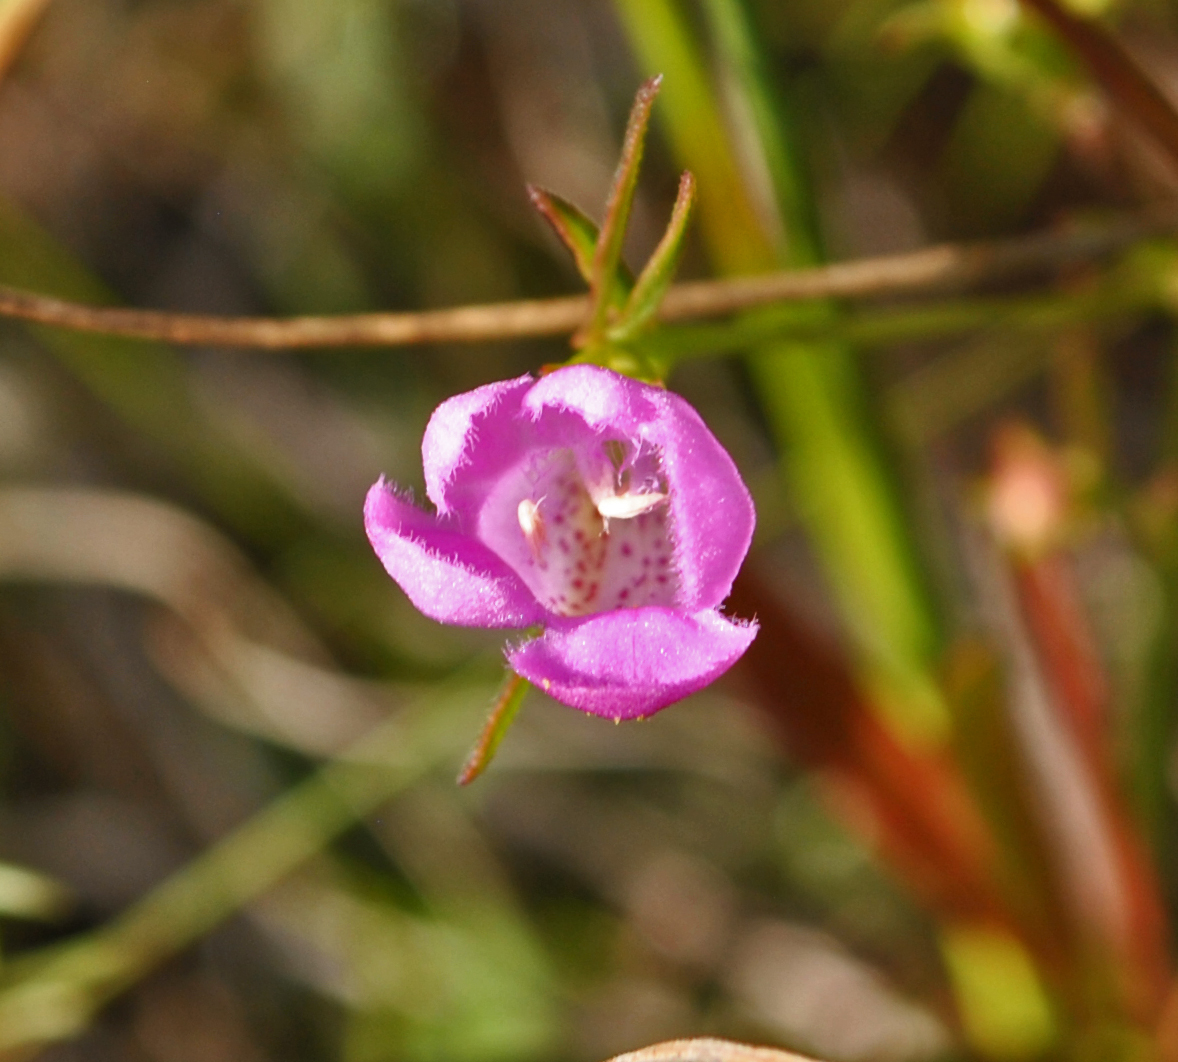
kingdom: Plantae
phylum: Tracheophyta
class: Magnoliopsida
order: Lamiales
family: Orobanchaceae
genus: Agalinis
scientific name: Agalinis purpurea
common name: Purple false foxglove
